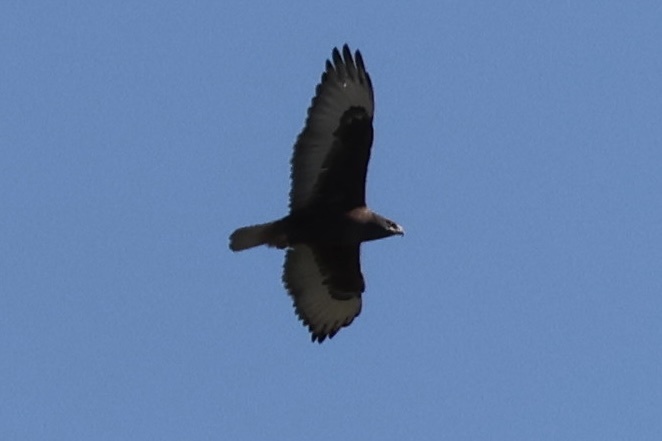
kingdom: Animalia
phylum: Chordata
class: Aves
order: Accipitriformes
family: Accipitridae
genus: Buteo
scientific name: Buteo regalis
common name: Ferruginous hawk
